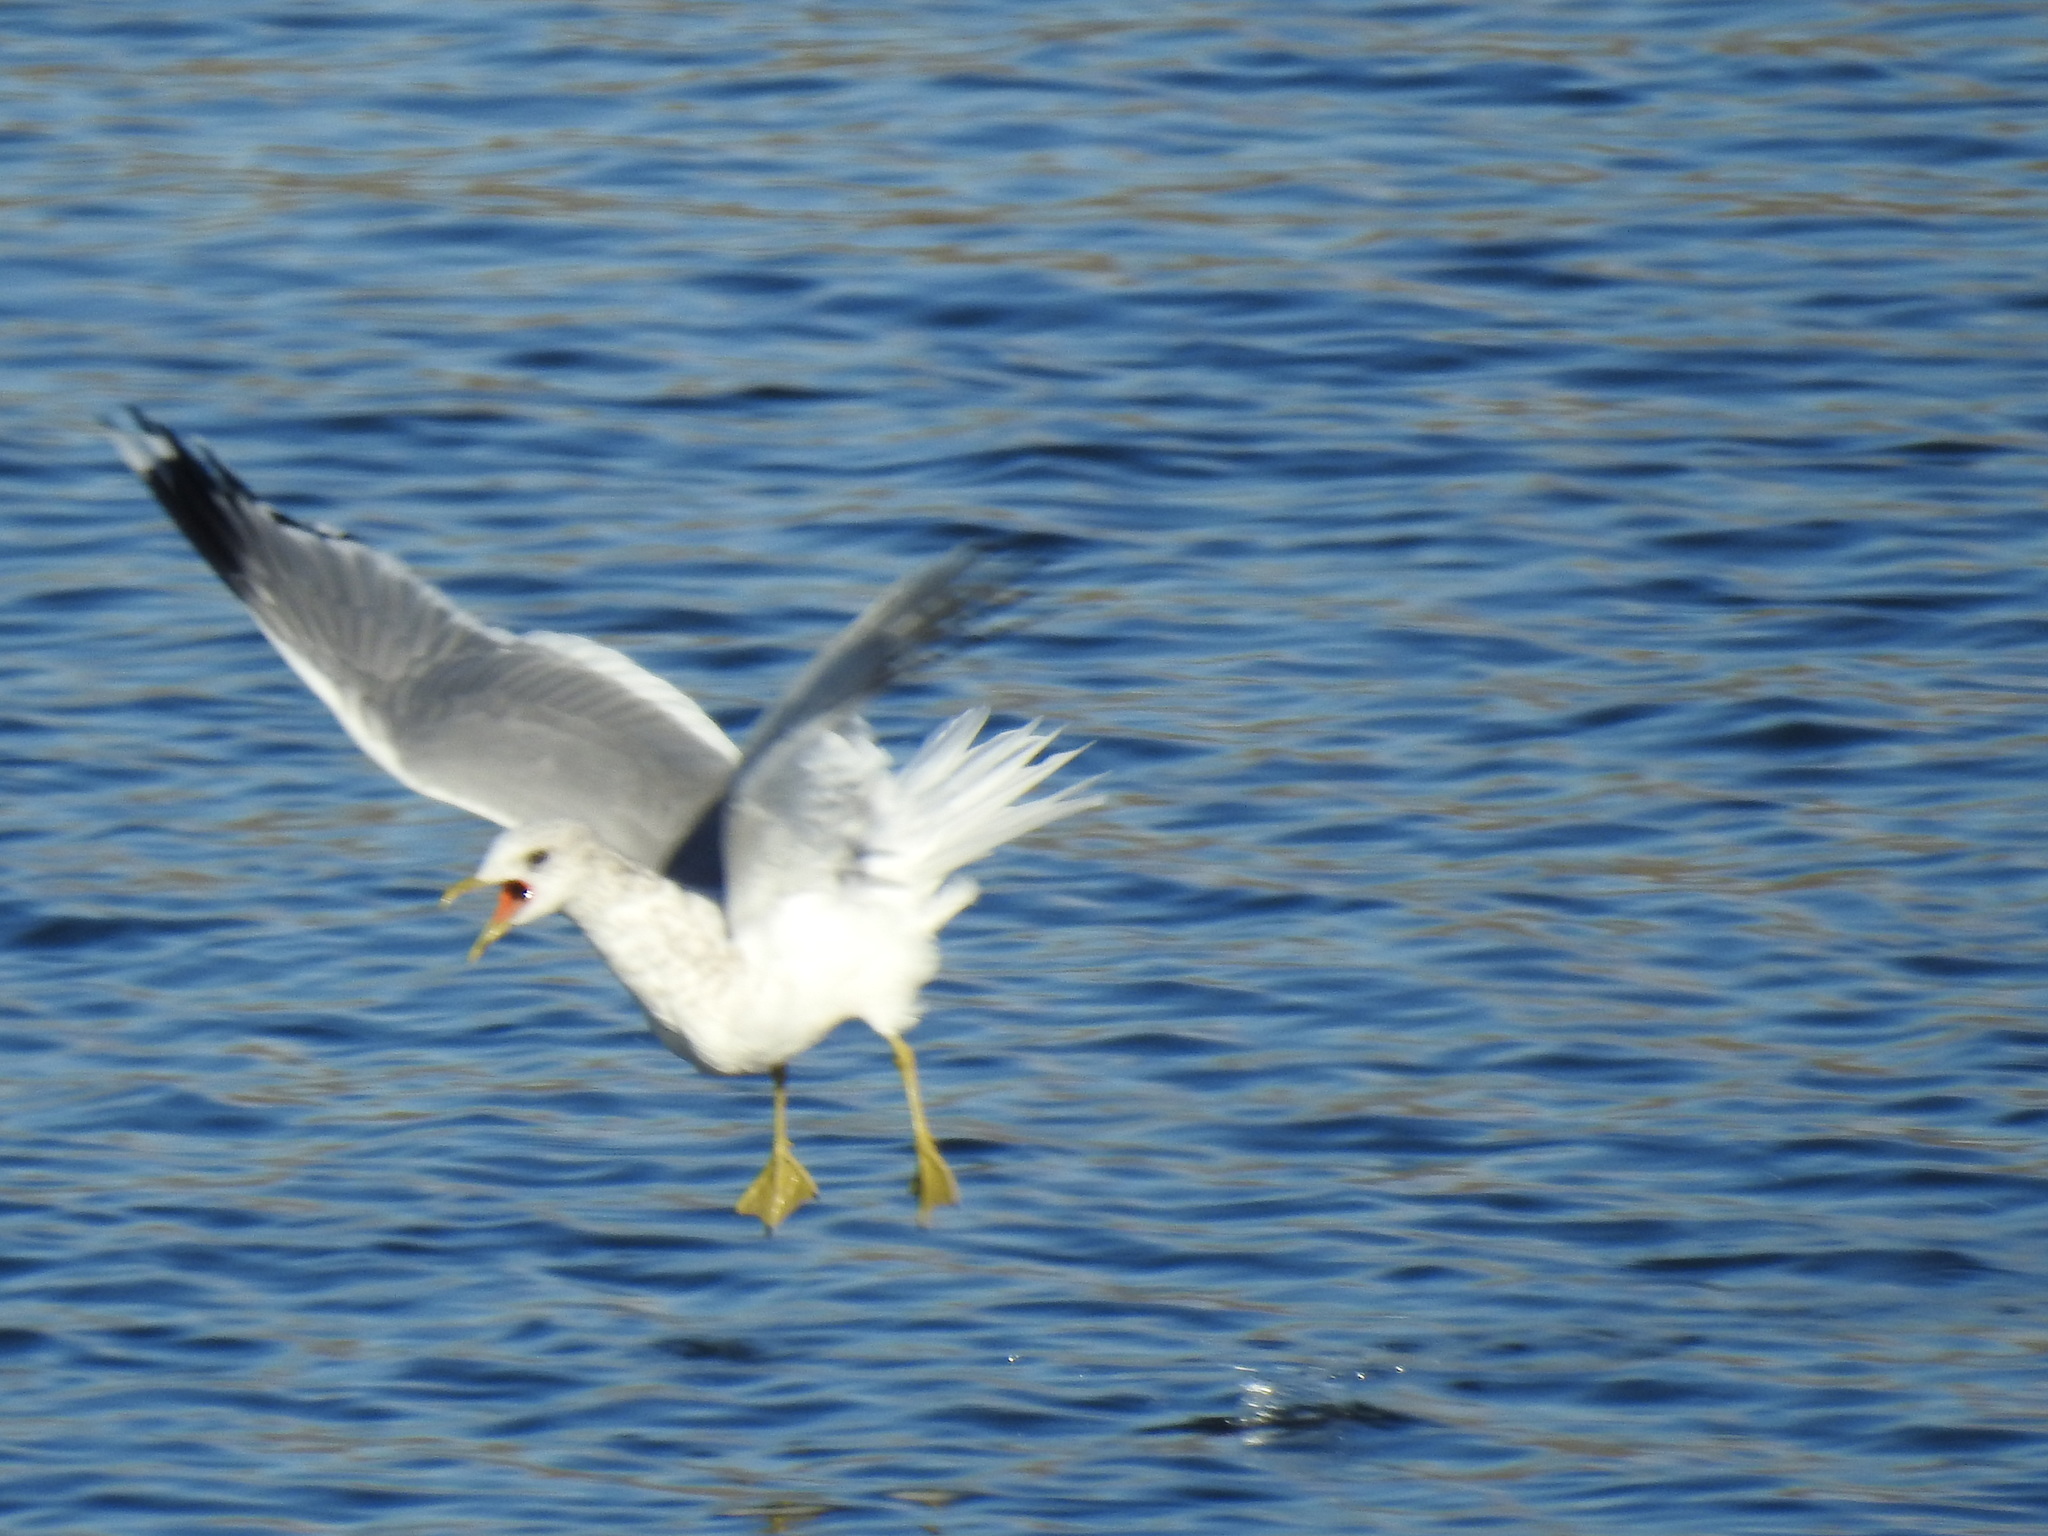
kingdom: Animalia
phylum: Chordata
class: Aves
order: Charadriiformes
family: Laridae
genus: Larus
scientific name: Larus brachyrhynchus
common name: Short-billed gull
